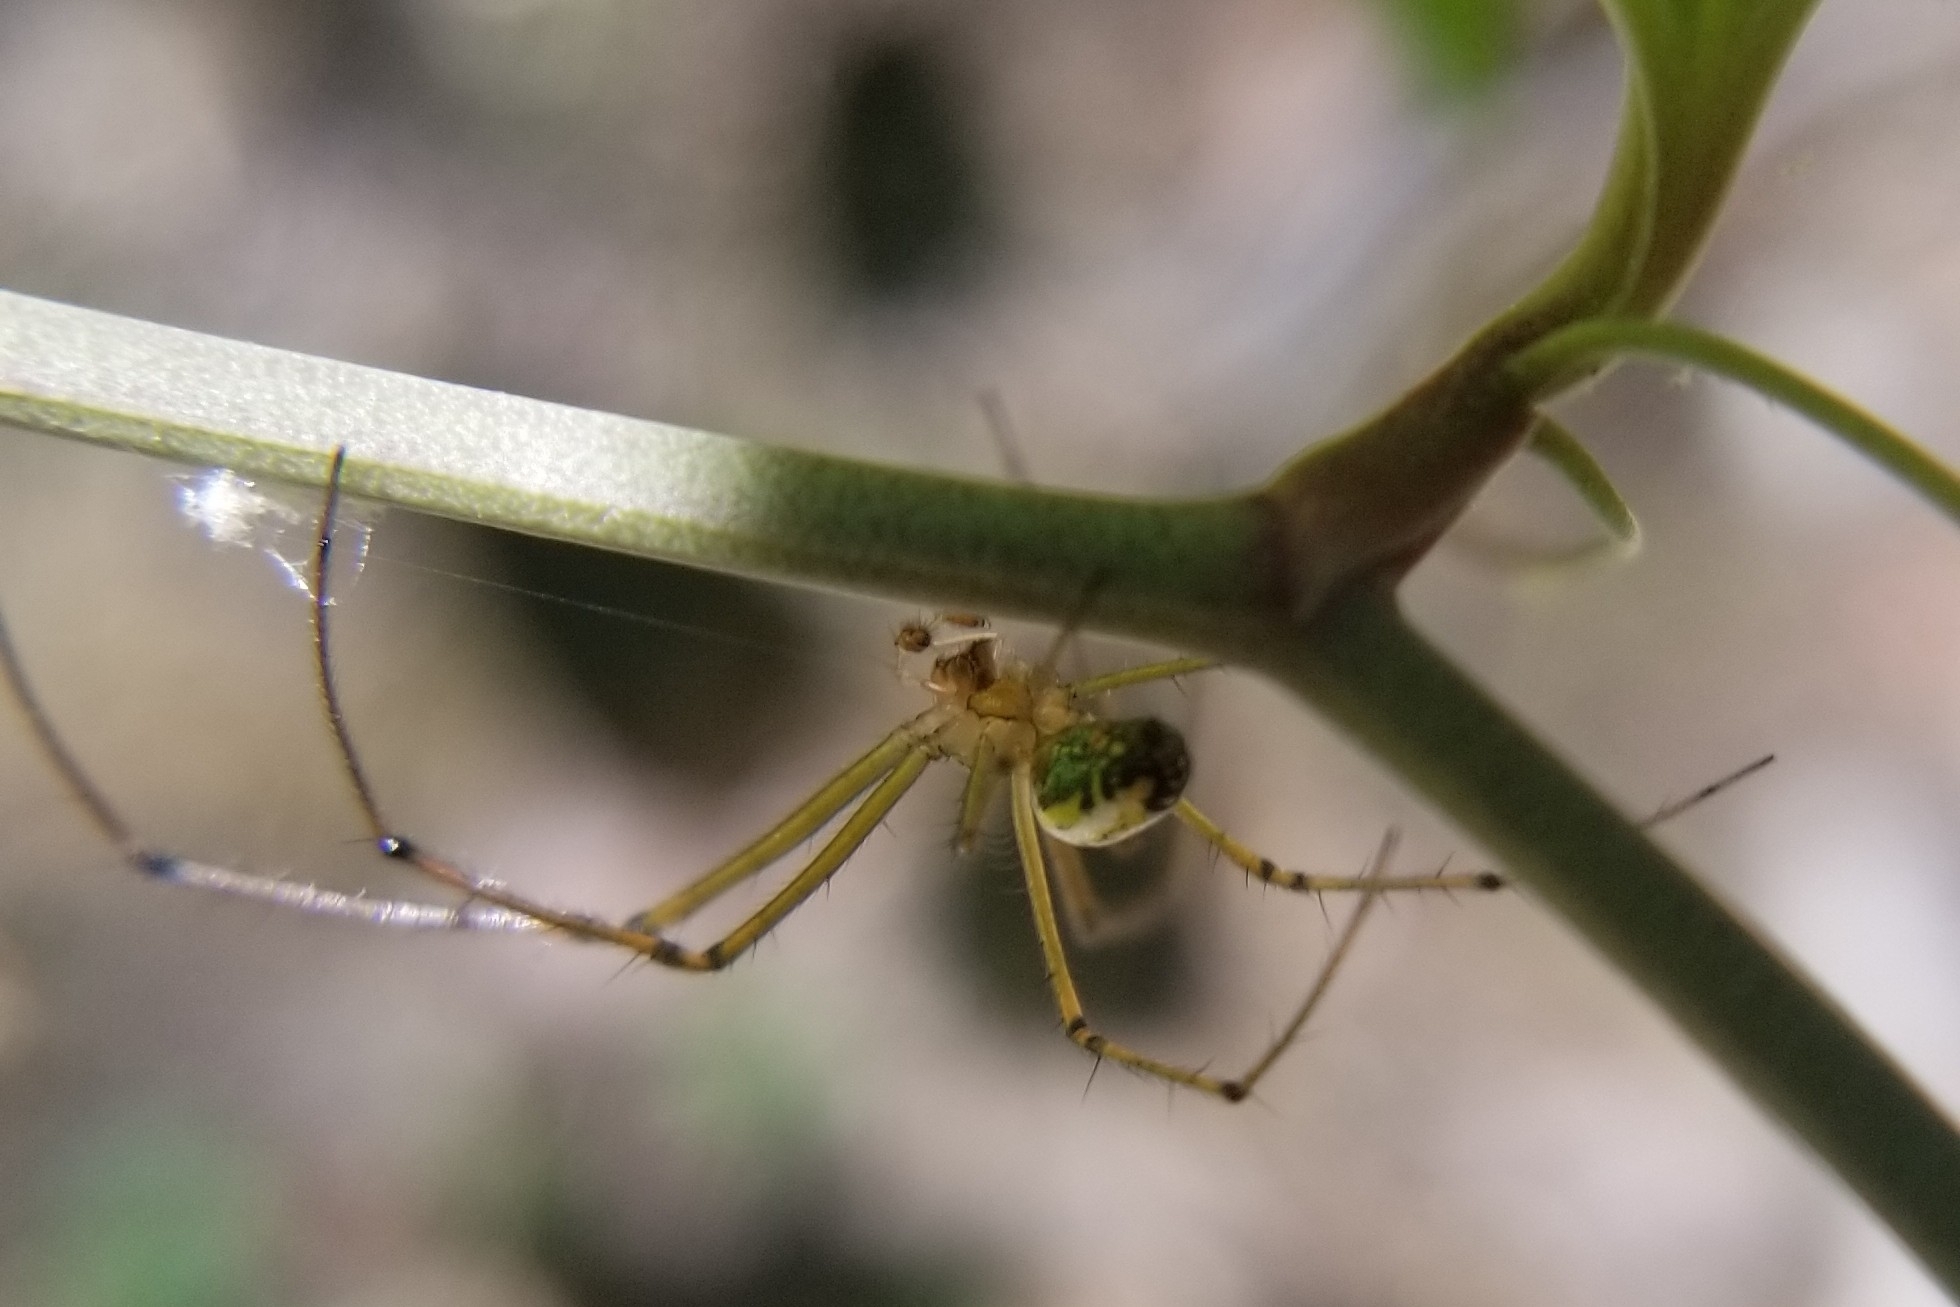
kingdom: Animalia
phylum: Arthropoda
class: Arachnida
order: Araneae
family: Tetragnathidae
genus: Leucauge
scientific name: Leucauge venusta
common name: Longjawed orb weavers
